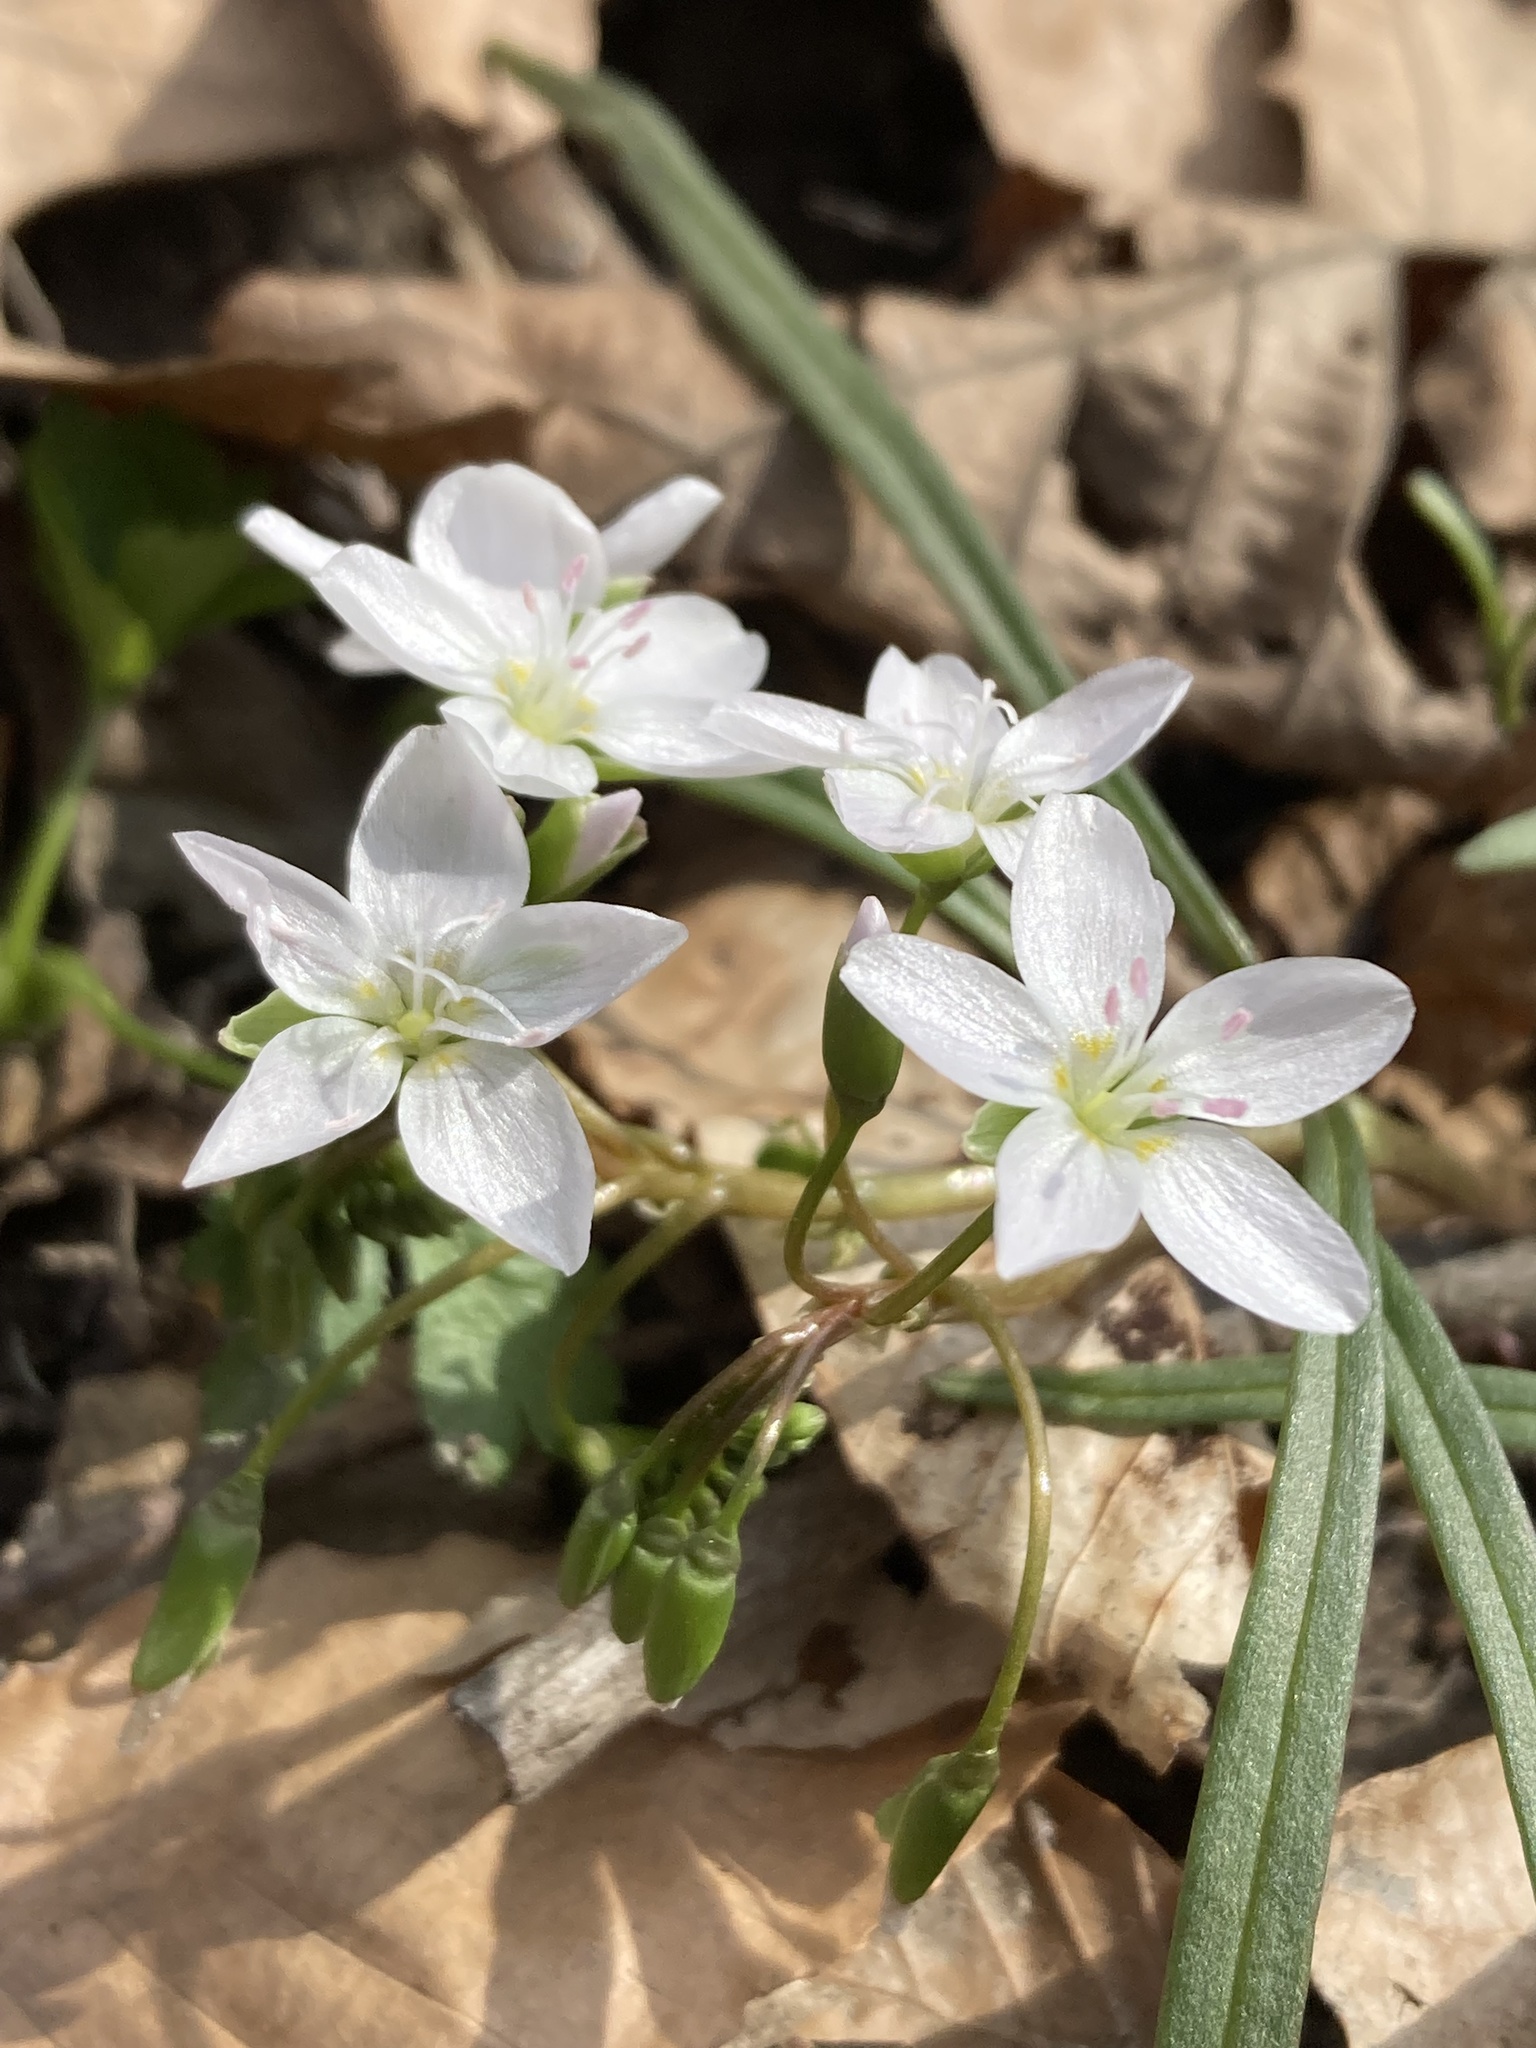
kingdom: Plantae
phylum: Tracheophyta
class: Magnoliopsida
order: Caryophyllales
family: Montiaceae
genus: Claytonia
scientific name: Claytonia virginica
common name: Virginia springbeauty
